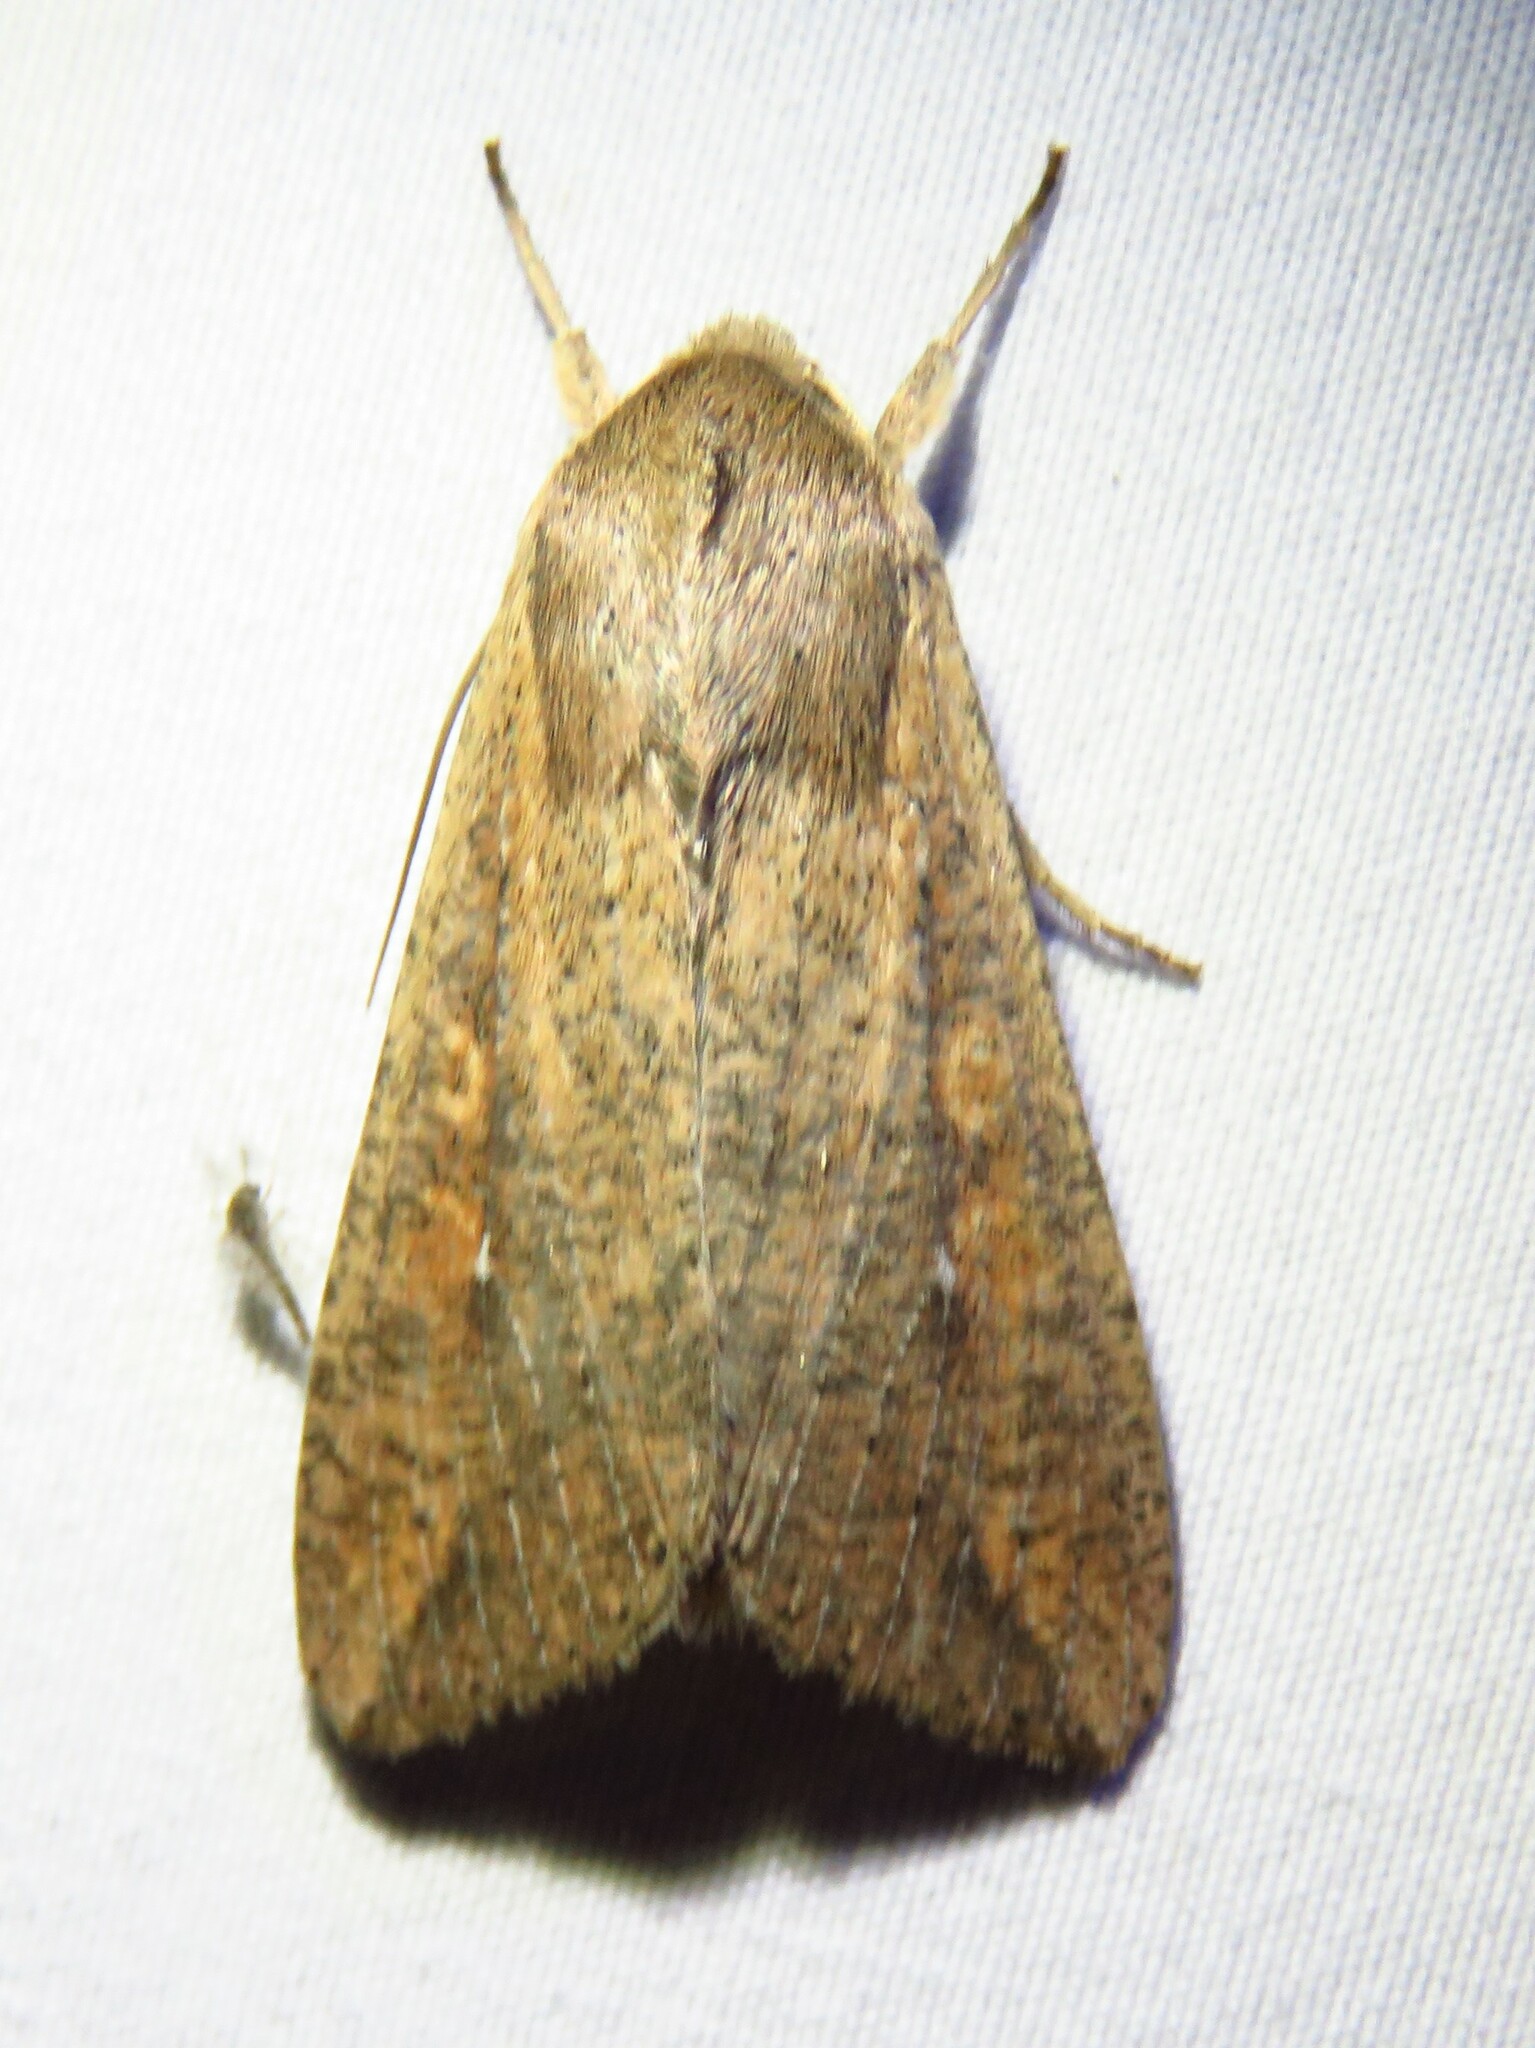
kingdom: Animalia
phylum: Arthropoda
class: Insecta
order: Lepidoptera
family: Noctuidae
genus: Mythimna
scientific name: Mythimna unipuncta
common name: White-speck
